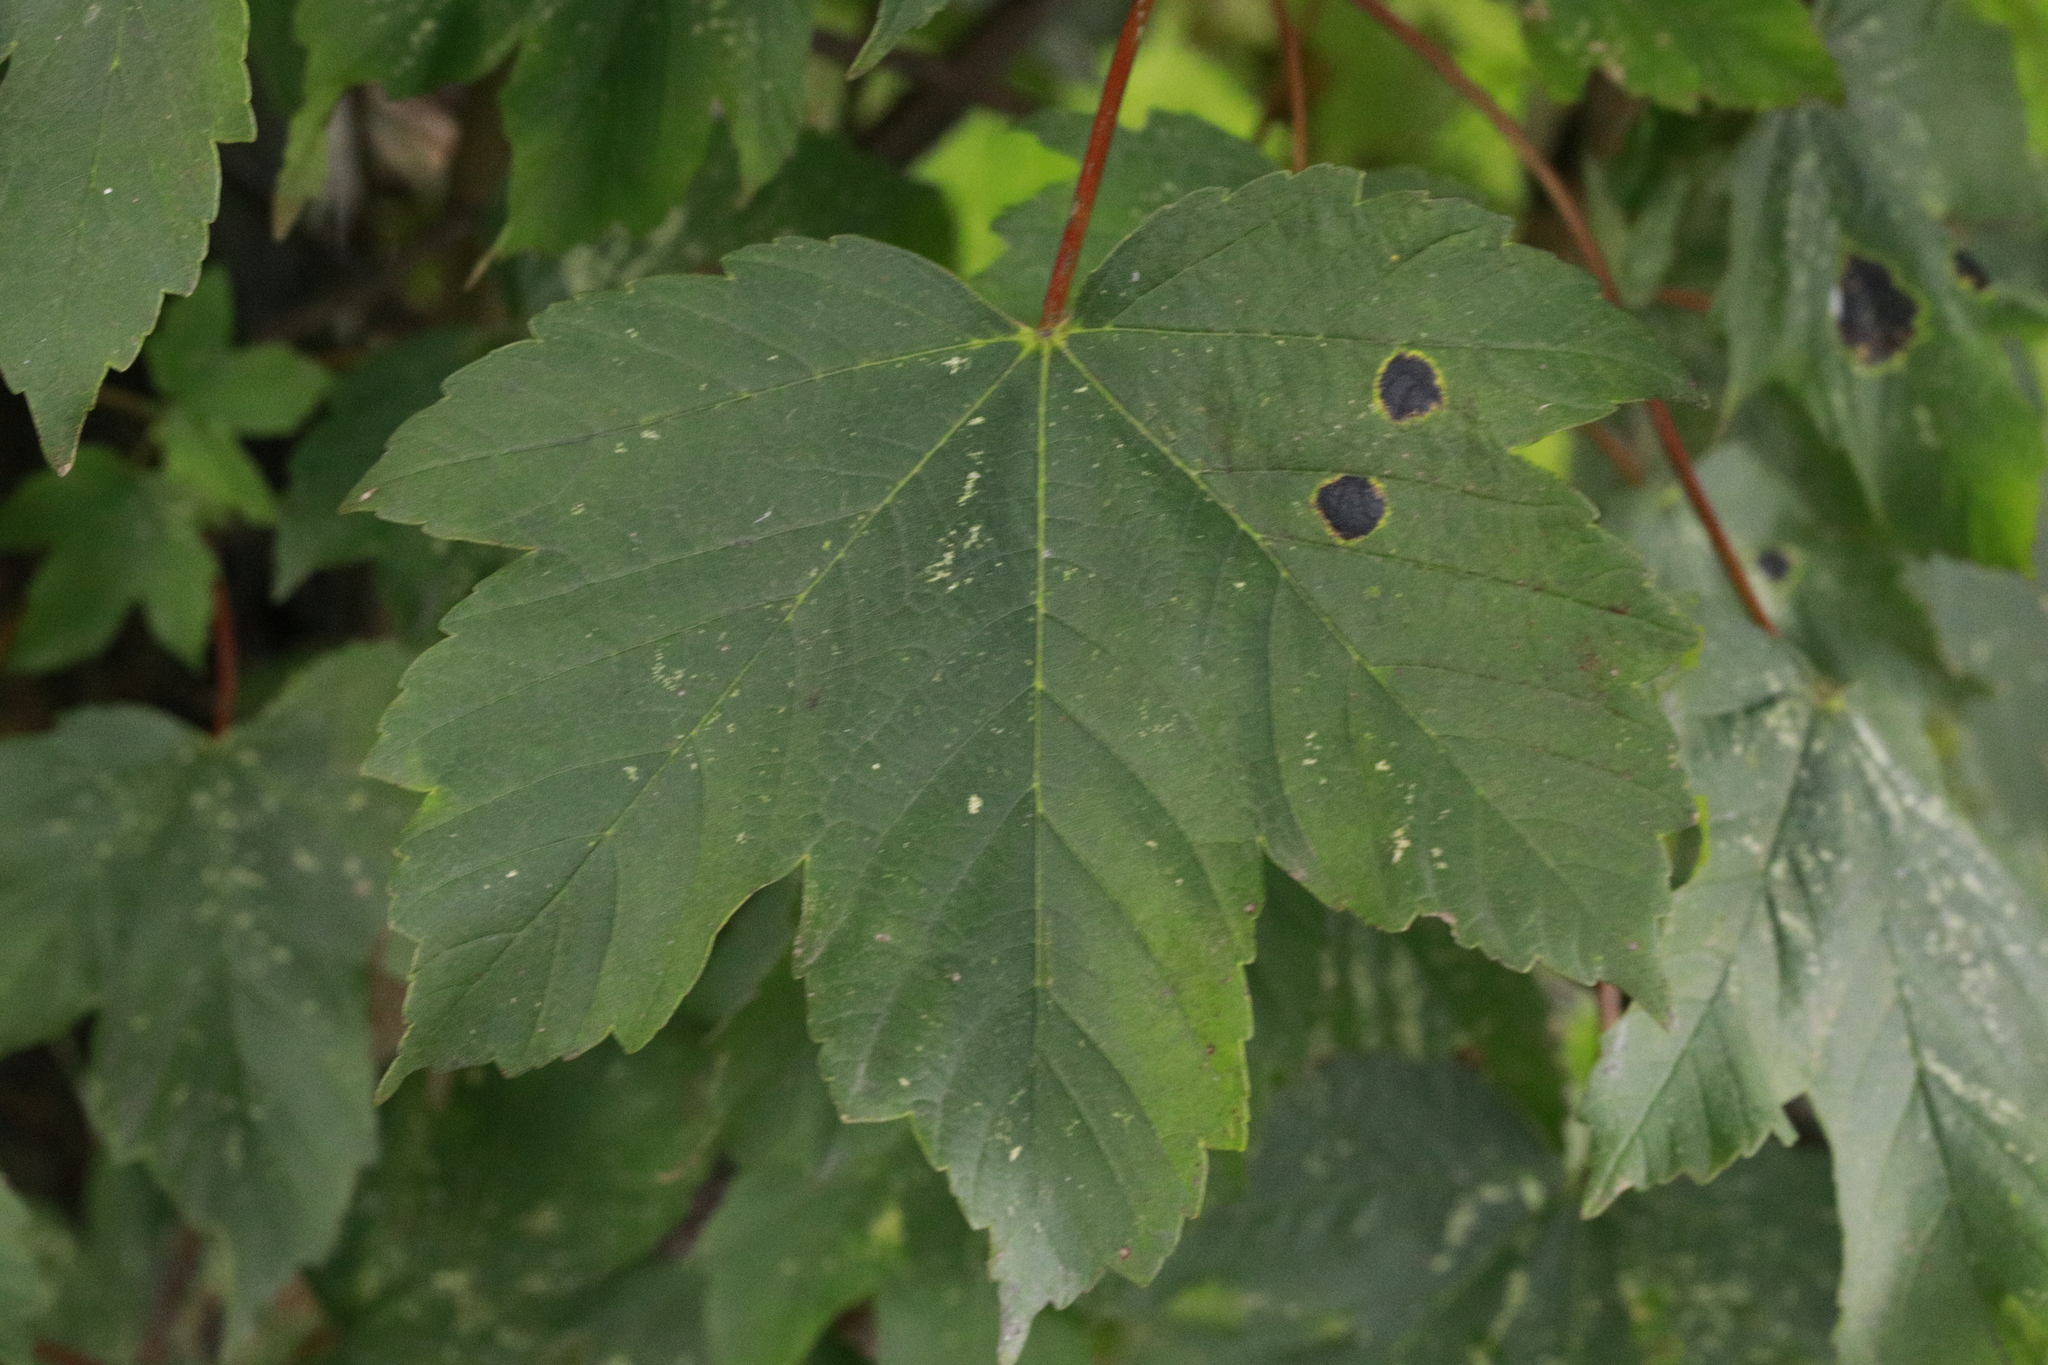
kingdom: Plantae
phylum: Tracheophyta
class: Magnoliopsida
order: Sapindales
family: Sapindaceae
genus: Acer
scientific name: Acer pseudoplatanus
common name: Sycamore
